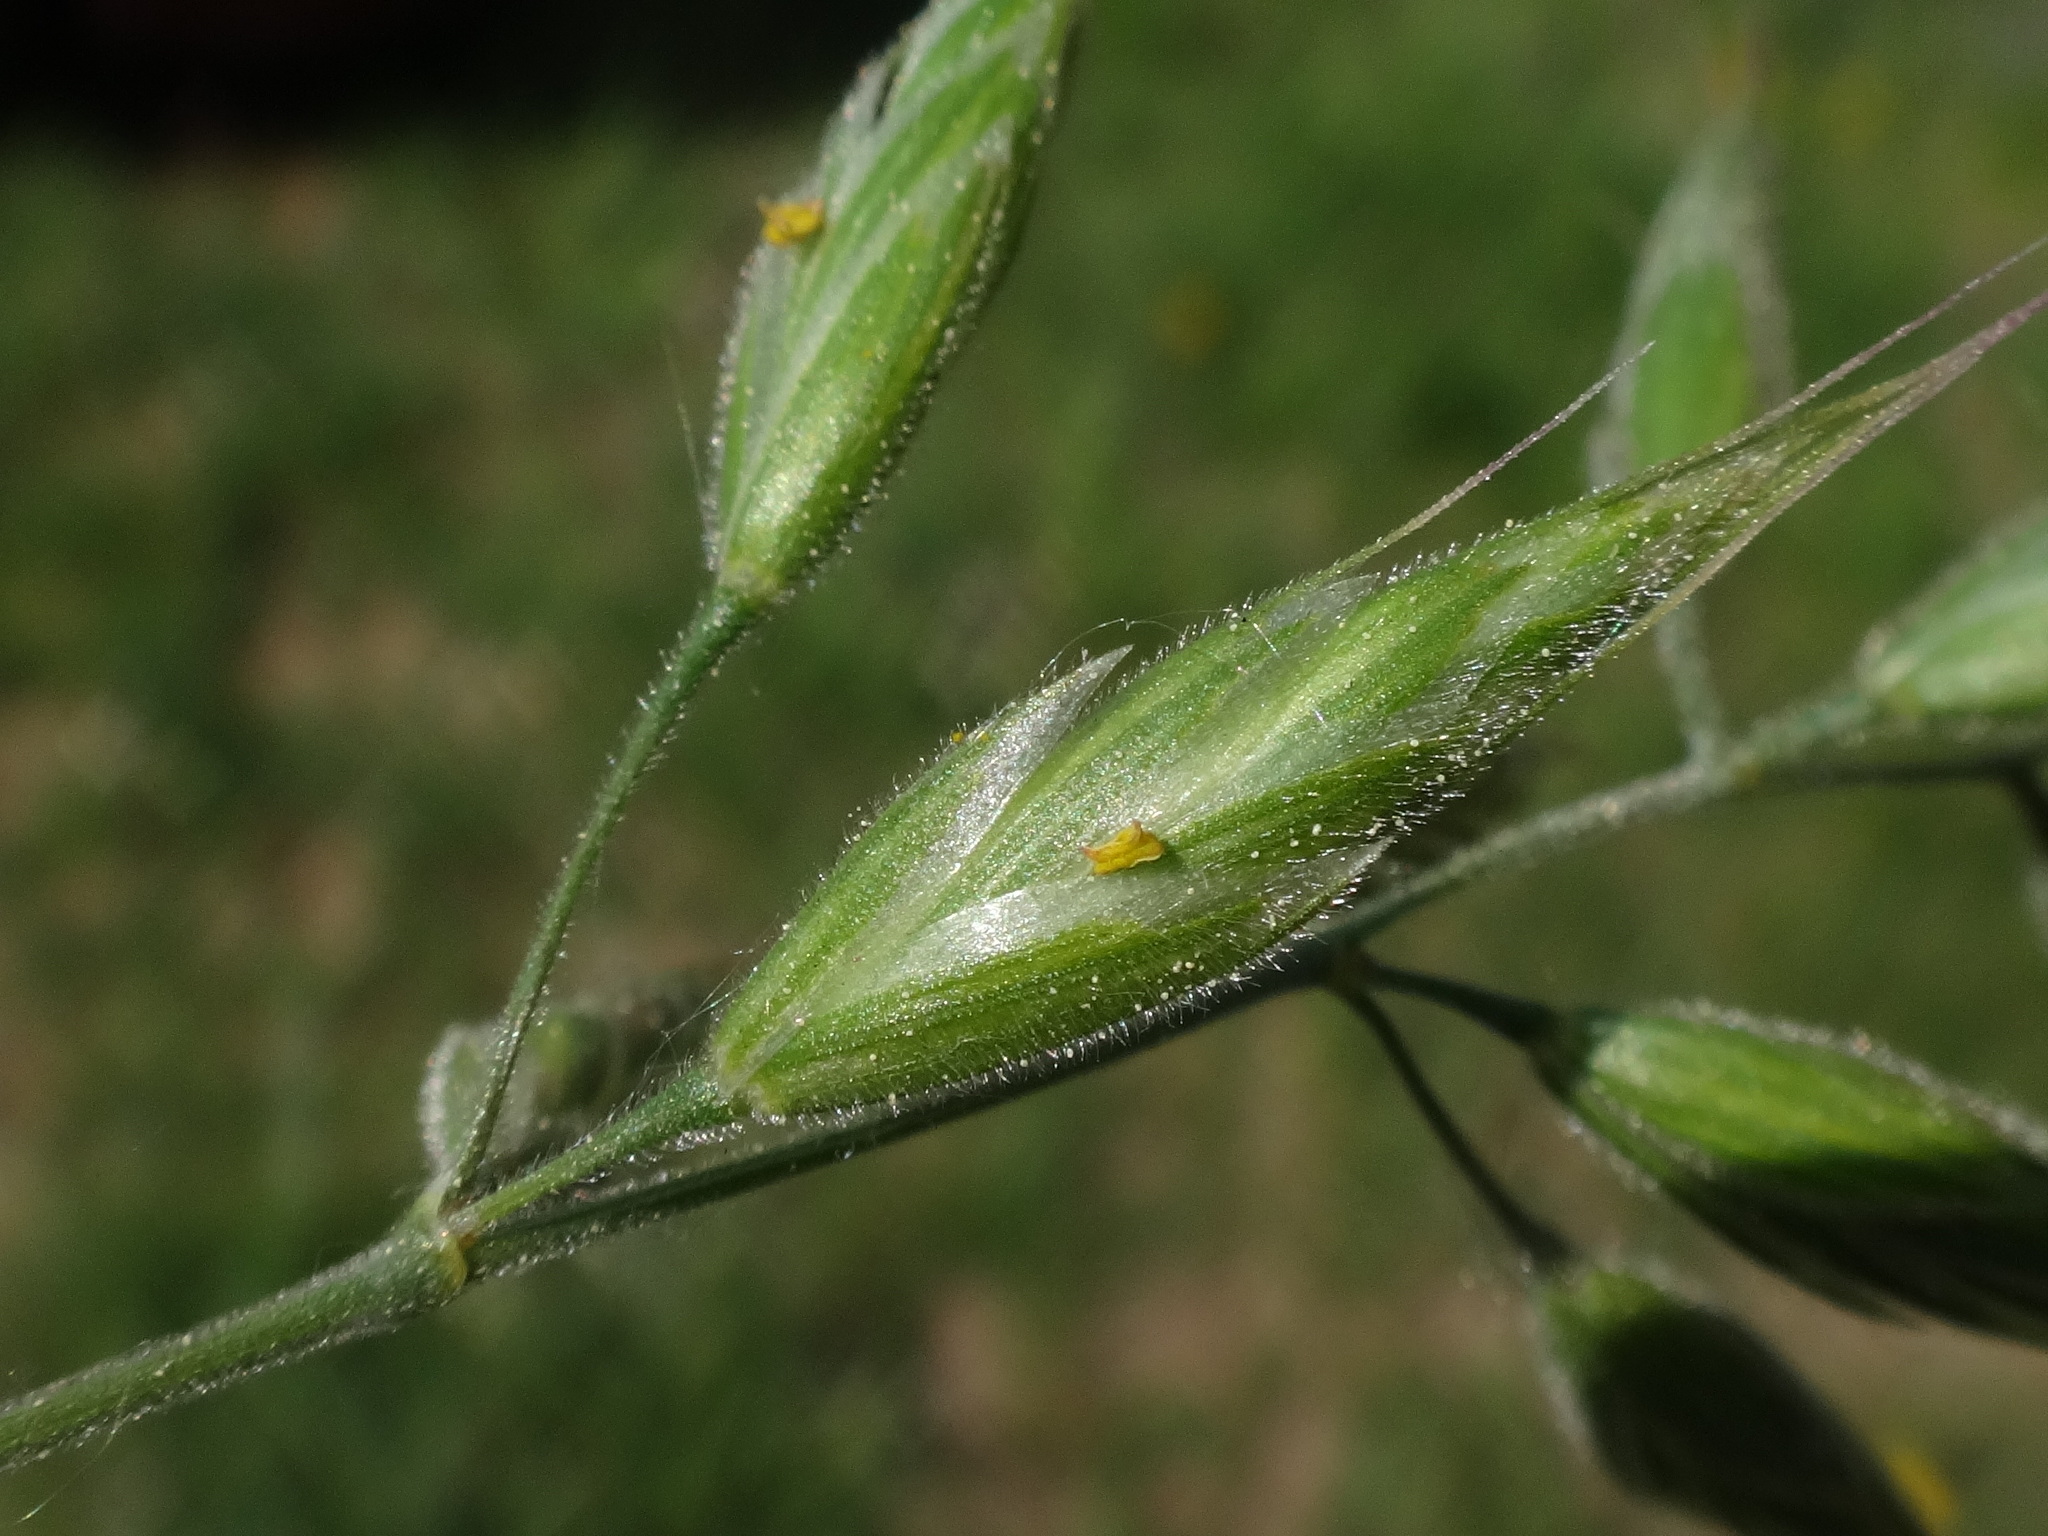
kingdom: Plantae
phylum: Tracheophyta
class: Liliopsida
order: Poales
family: Poaceae
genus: Bromus
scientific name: Bromus hordeaceus
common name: Soft brome
